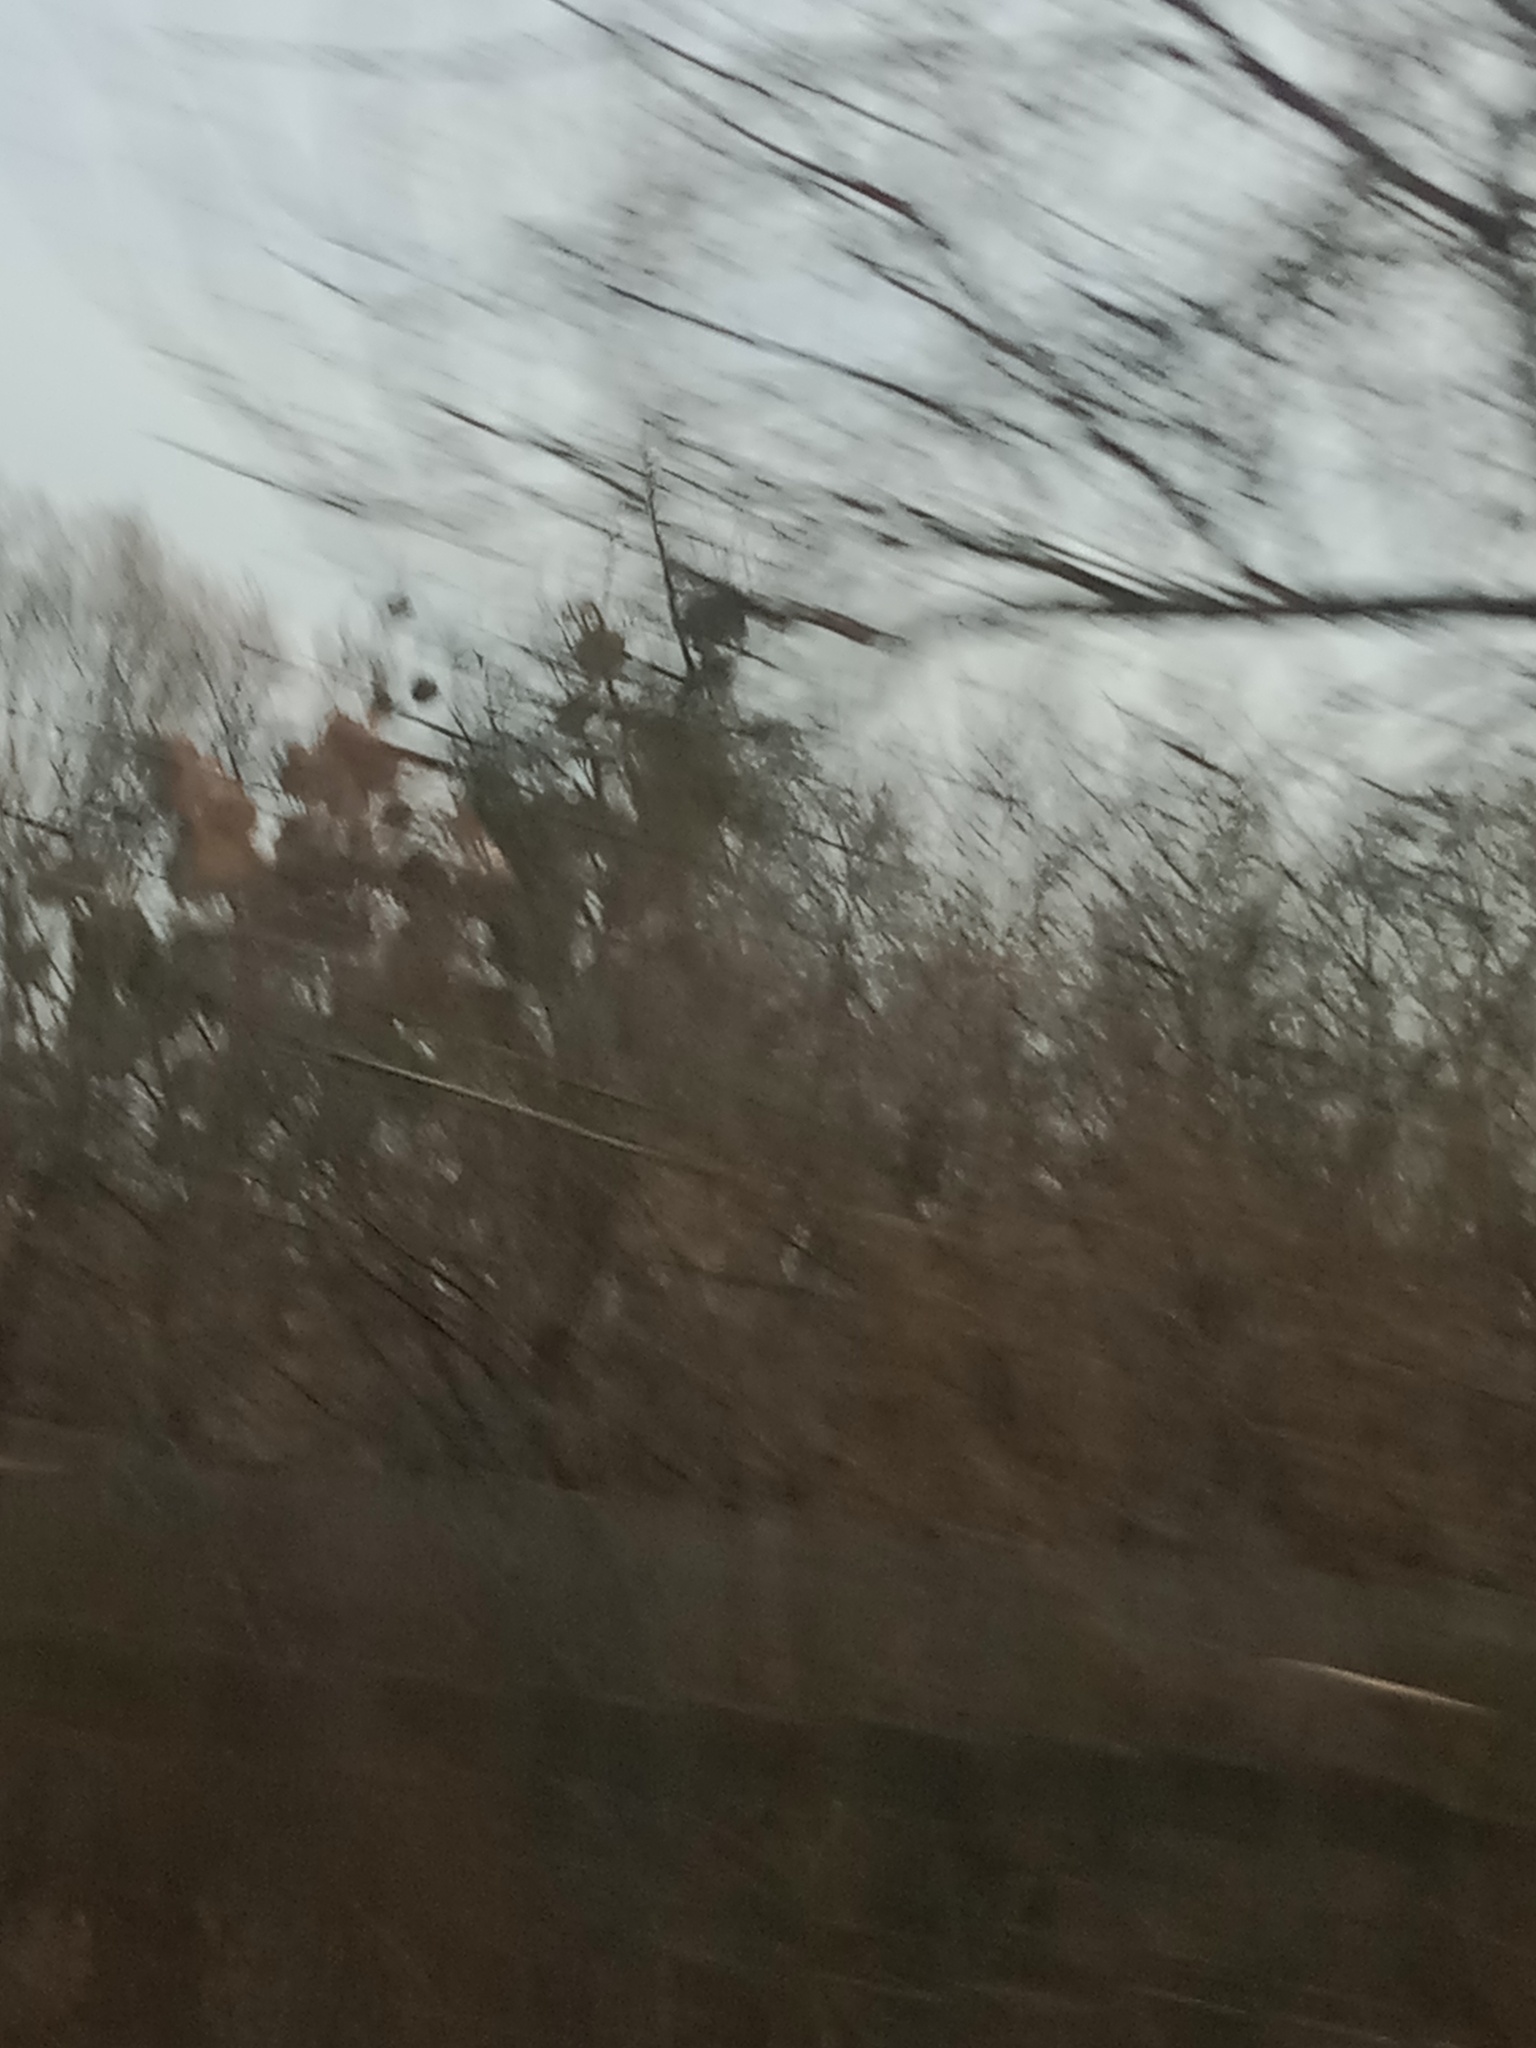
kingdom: Plantae
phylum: Tracheophyta
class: Magnoliopsida
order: Santalales
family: Viscaceae
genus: Viscum
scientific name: Viscum album
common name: Mistletoe
